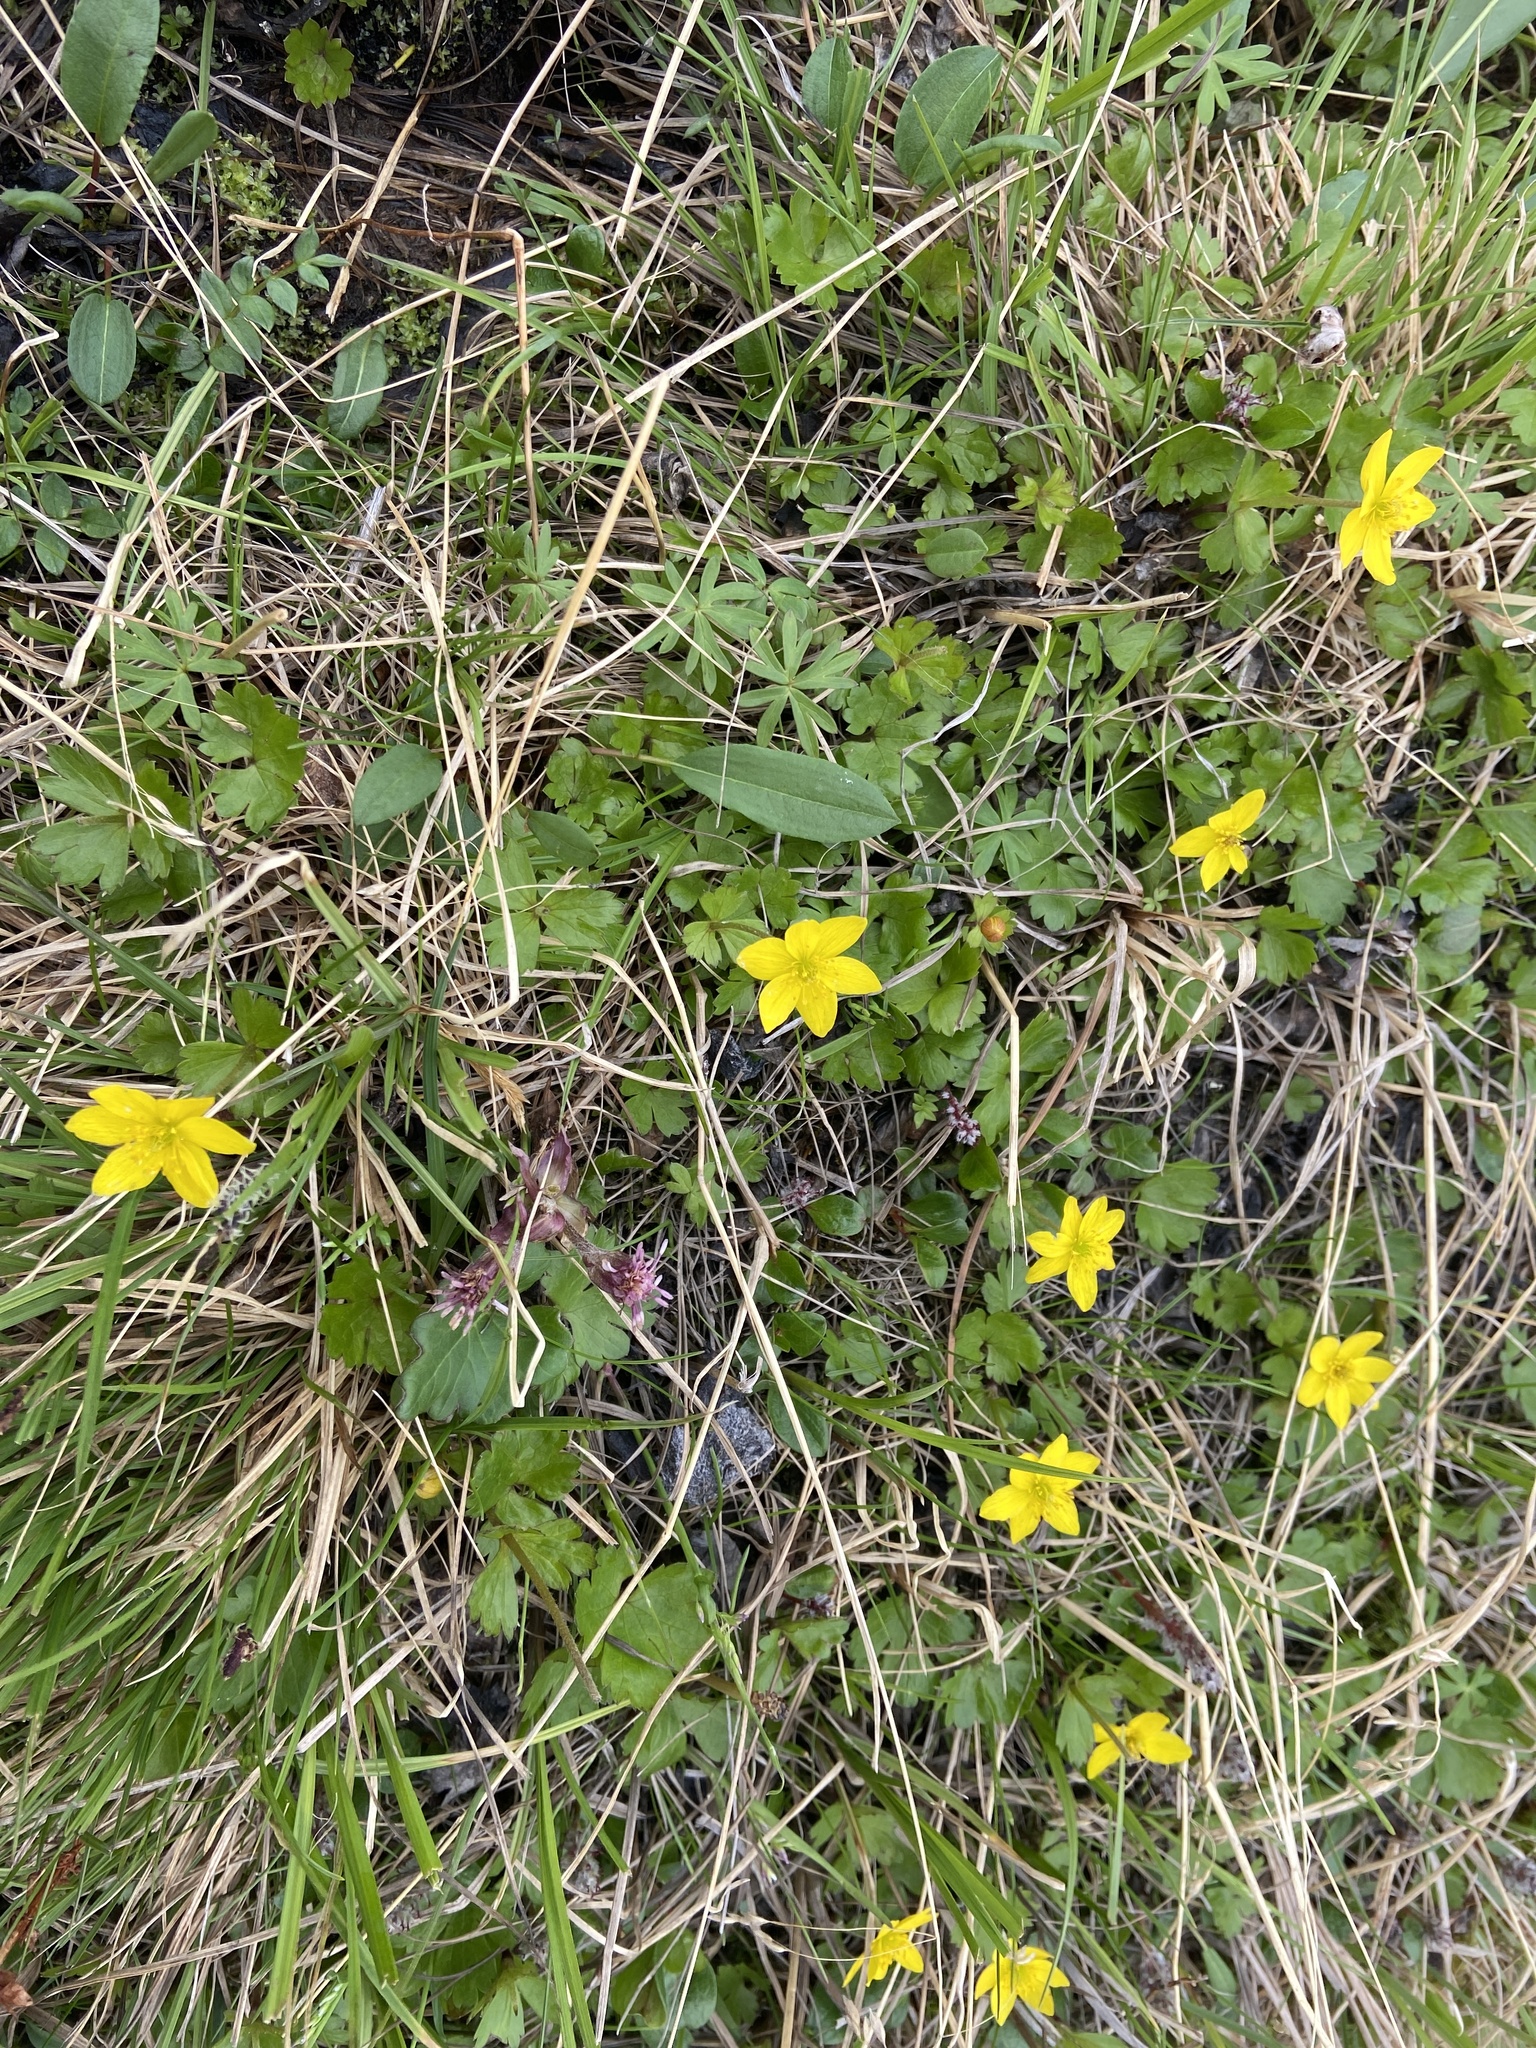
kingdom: Plantae
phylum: Tracheophyta
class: Magnoliopsida
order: Ranunculales
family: Ranunculaceae
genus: Anemonastrum
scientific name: Anemonastrum richardsonii
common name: Richardson's anemone
